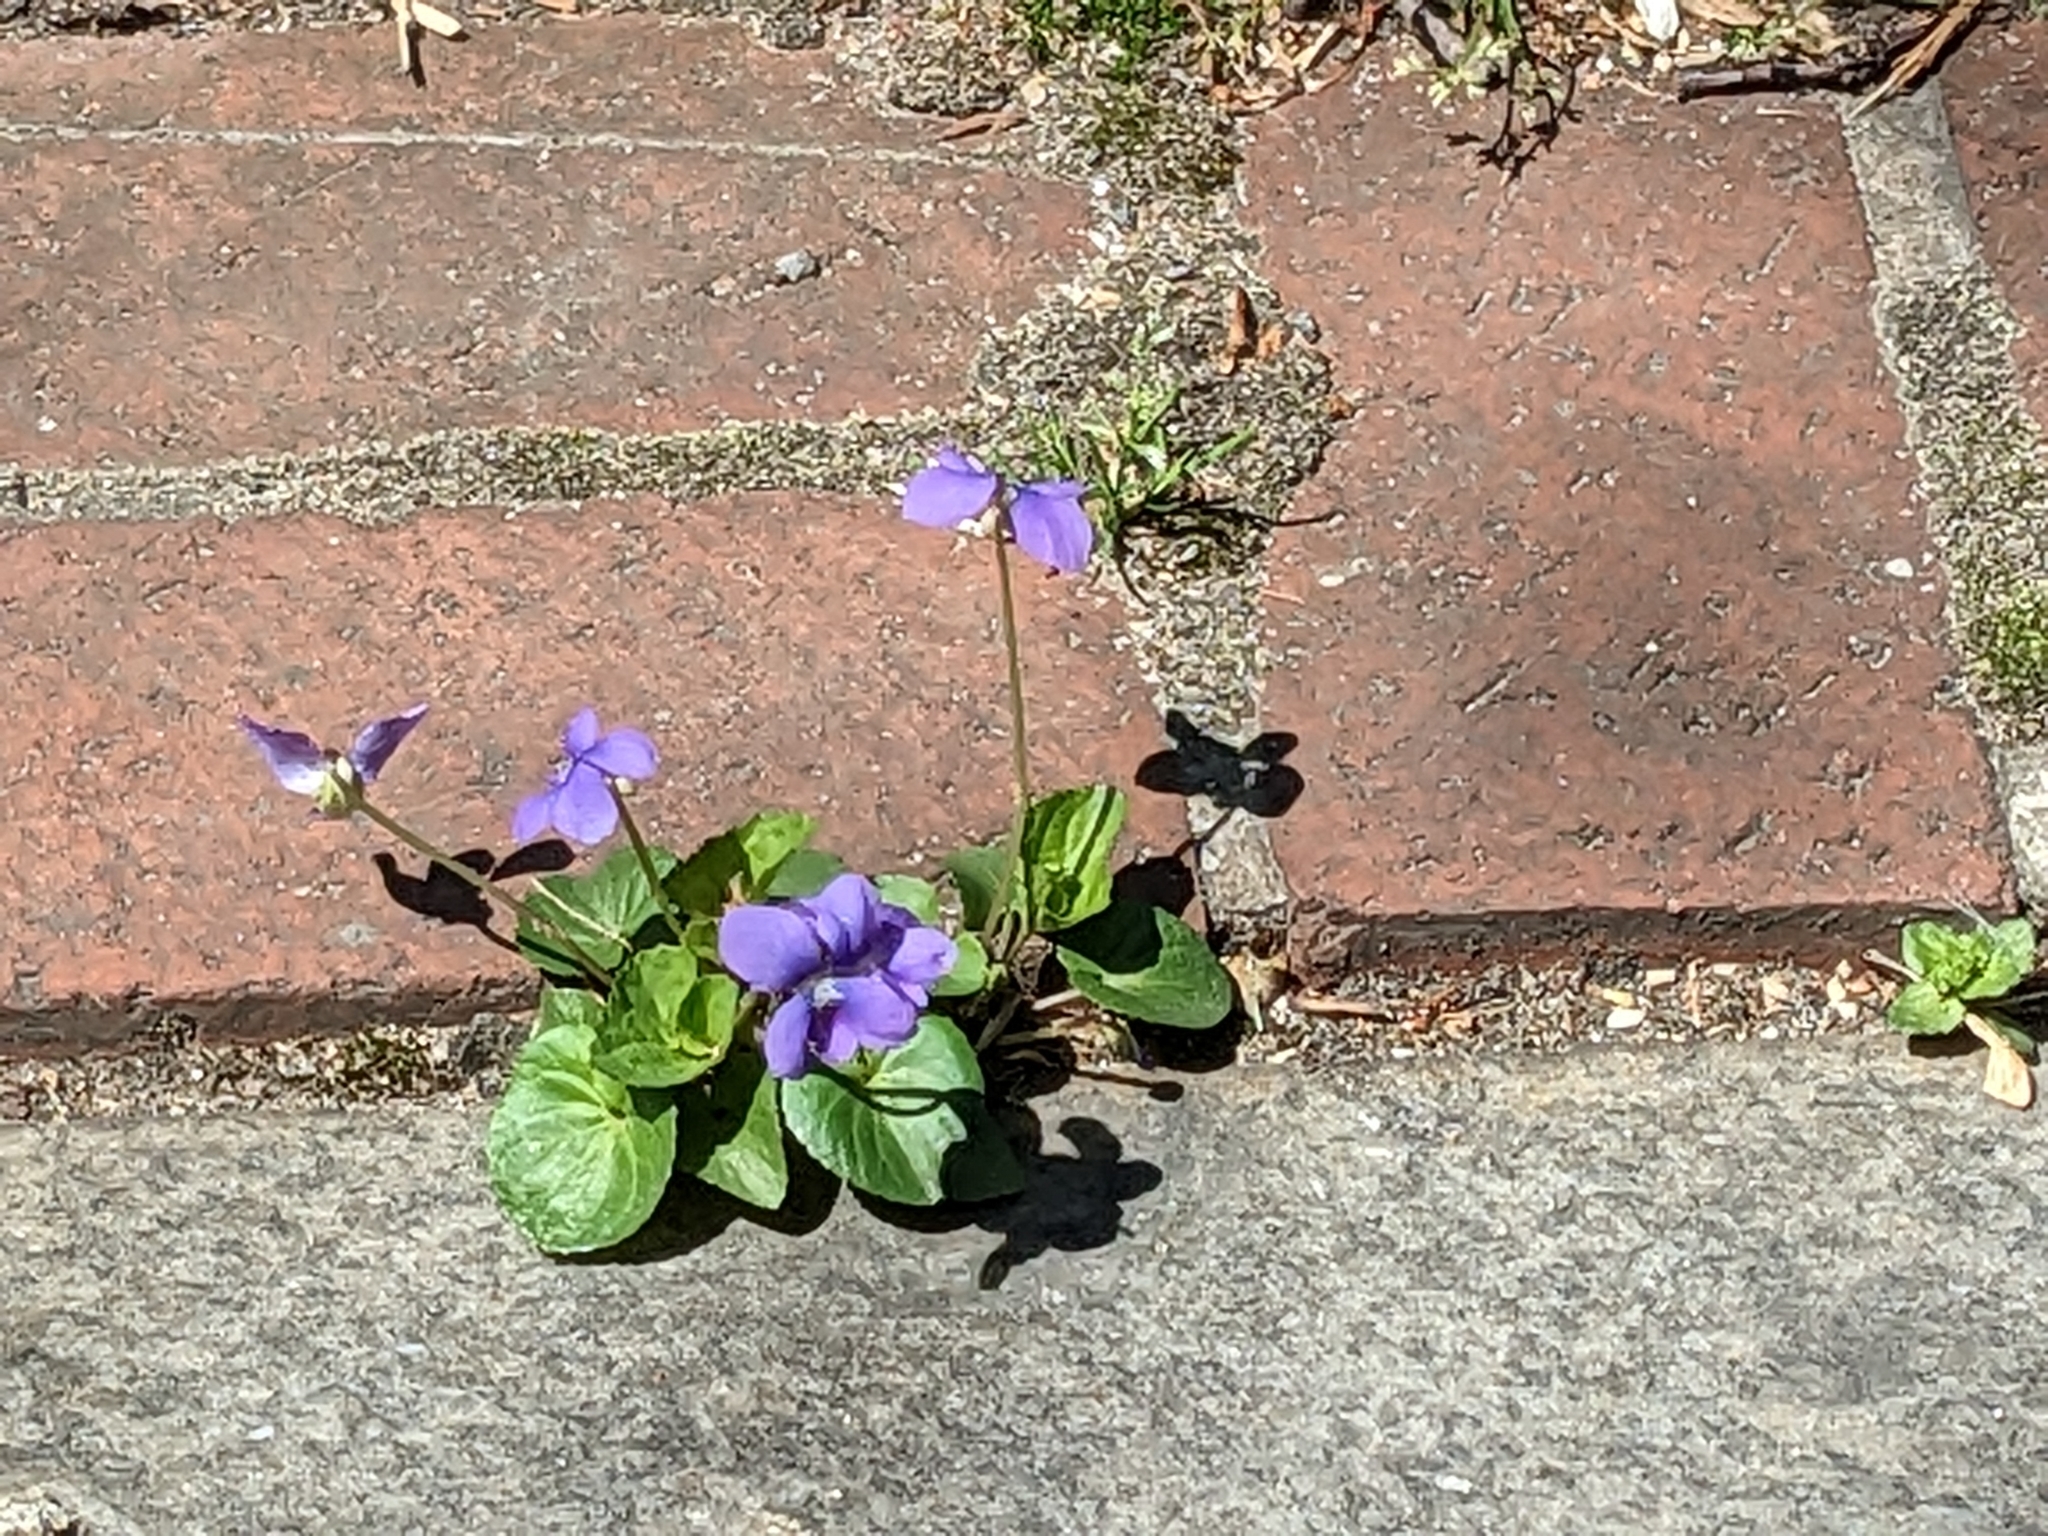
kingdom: Plantae
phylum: Tracheophyta
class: Magnoliopsida
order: Malpighiales
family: Violaceae
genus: Viola
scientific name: Viola sororia
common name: Dooryard violet
